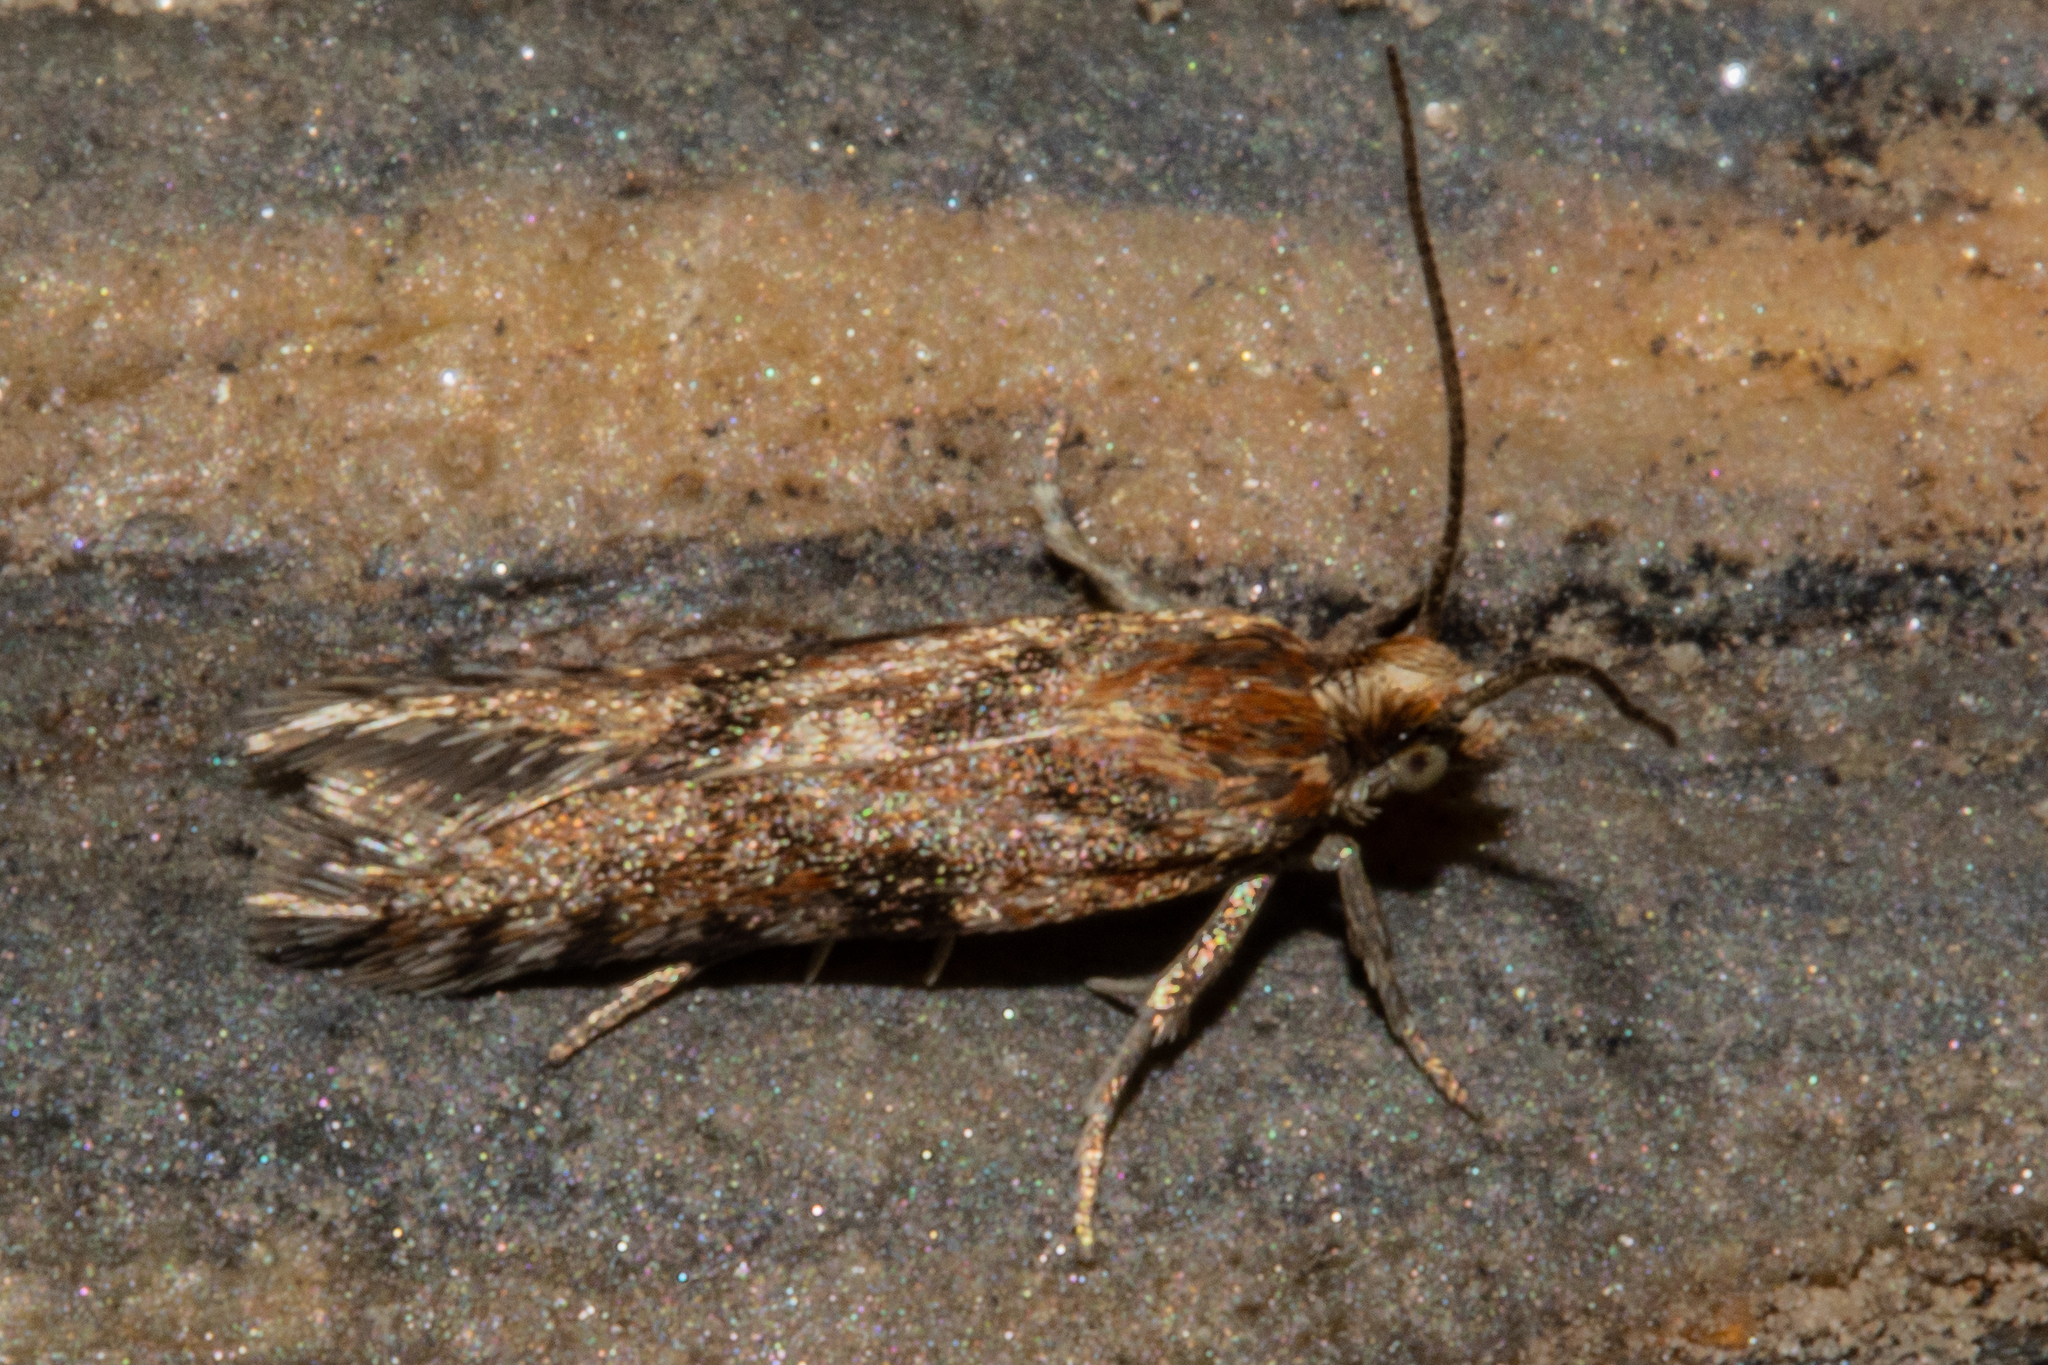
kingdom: Animalia
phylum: Arthropoda
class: Insecta
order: Lepidoptera
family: Tortricidae
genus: Eurythecta
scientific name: Eurythecta zelaea
